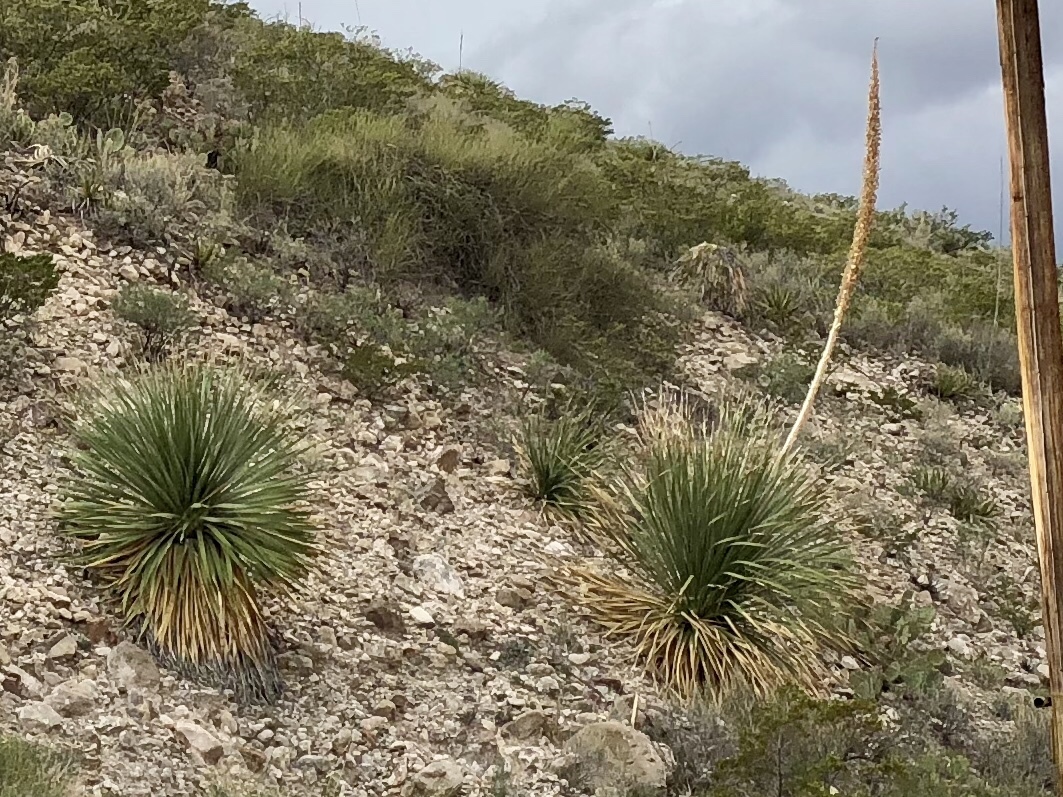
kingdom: Plantae
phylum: Tracheophyta
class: Liliopsida
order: Asparagales
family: Asparagaceae
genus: Dasylirion
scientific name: Dasylirion wheeleri
